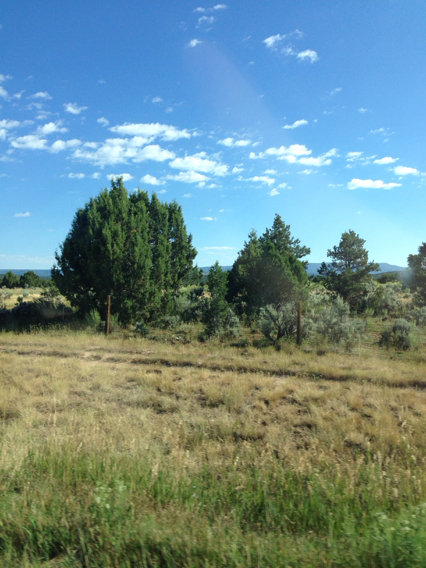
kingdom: Plantae
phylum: Tracheophyta
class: Pinopsida
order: Pinales
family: Cupressaceae
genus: Juniperus
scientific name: Juniperus osteosperma
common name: Utah juniper
